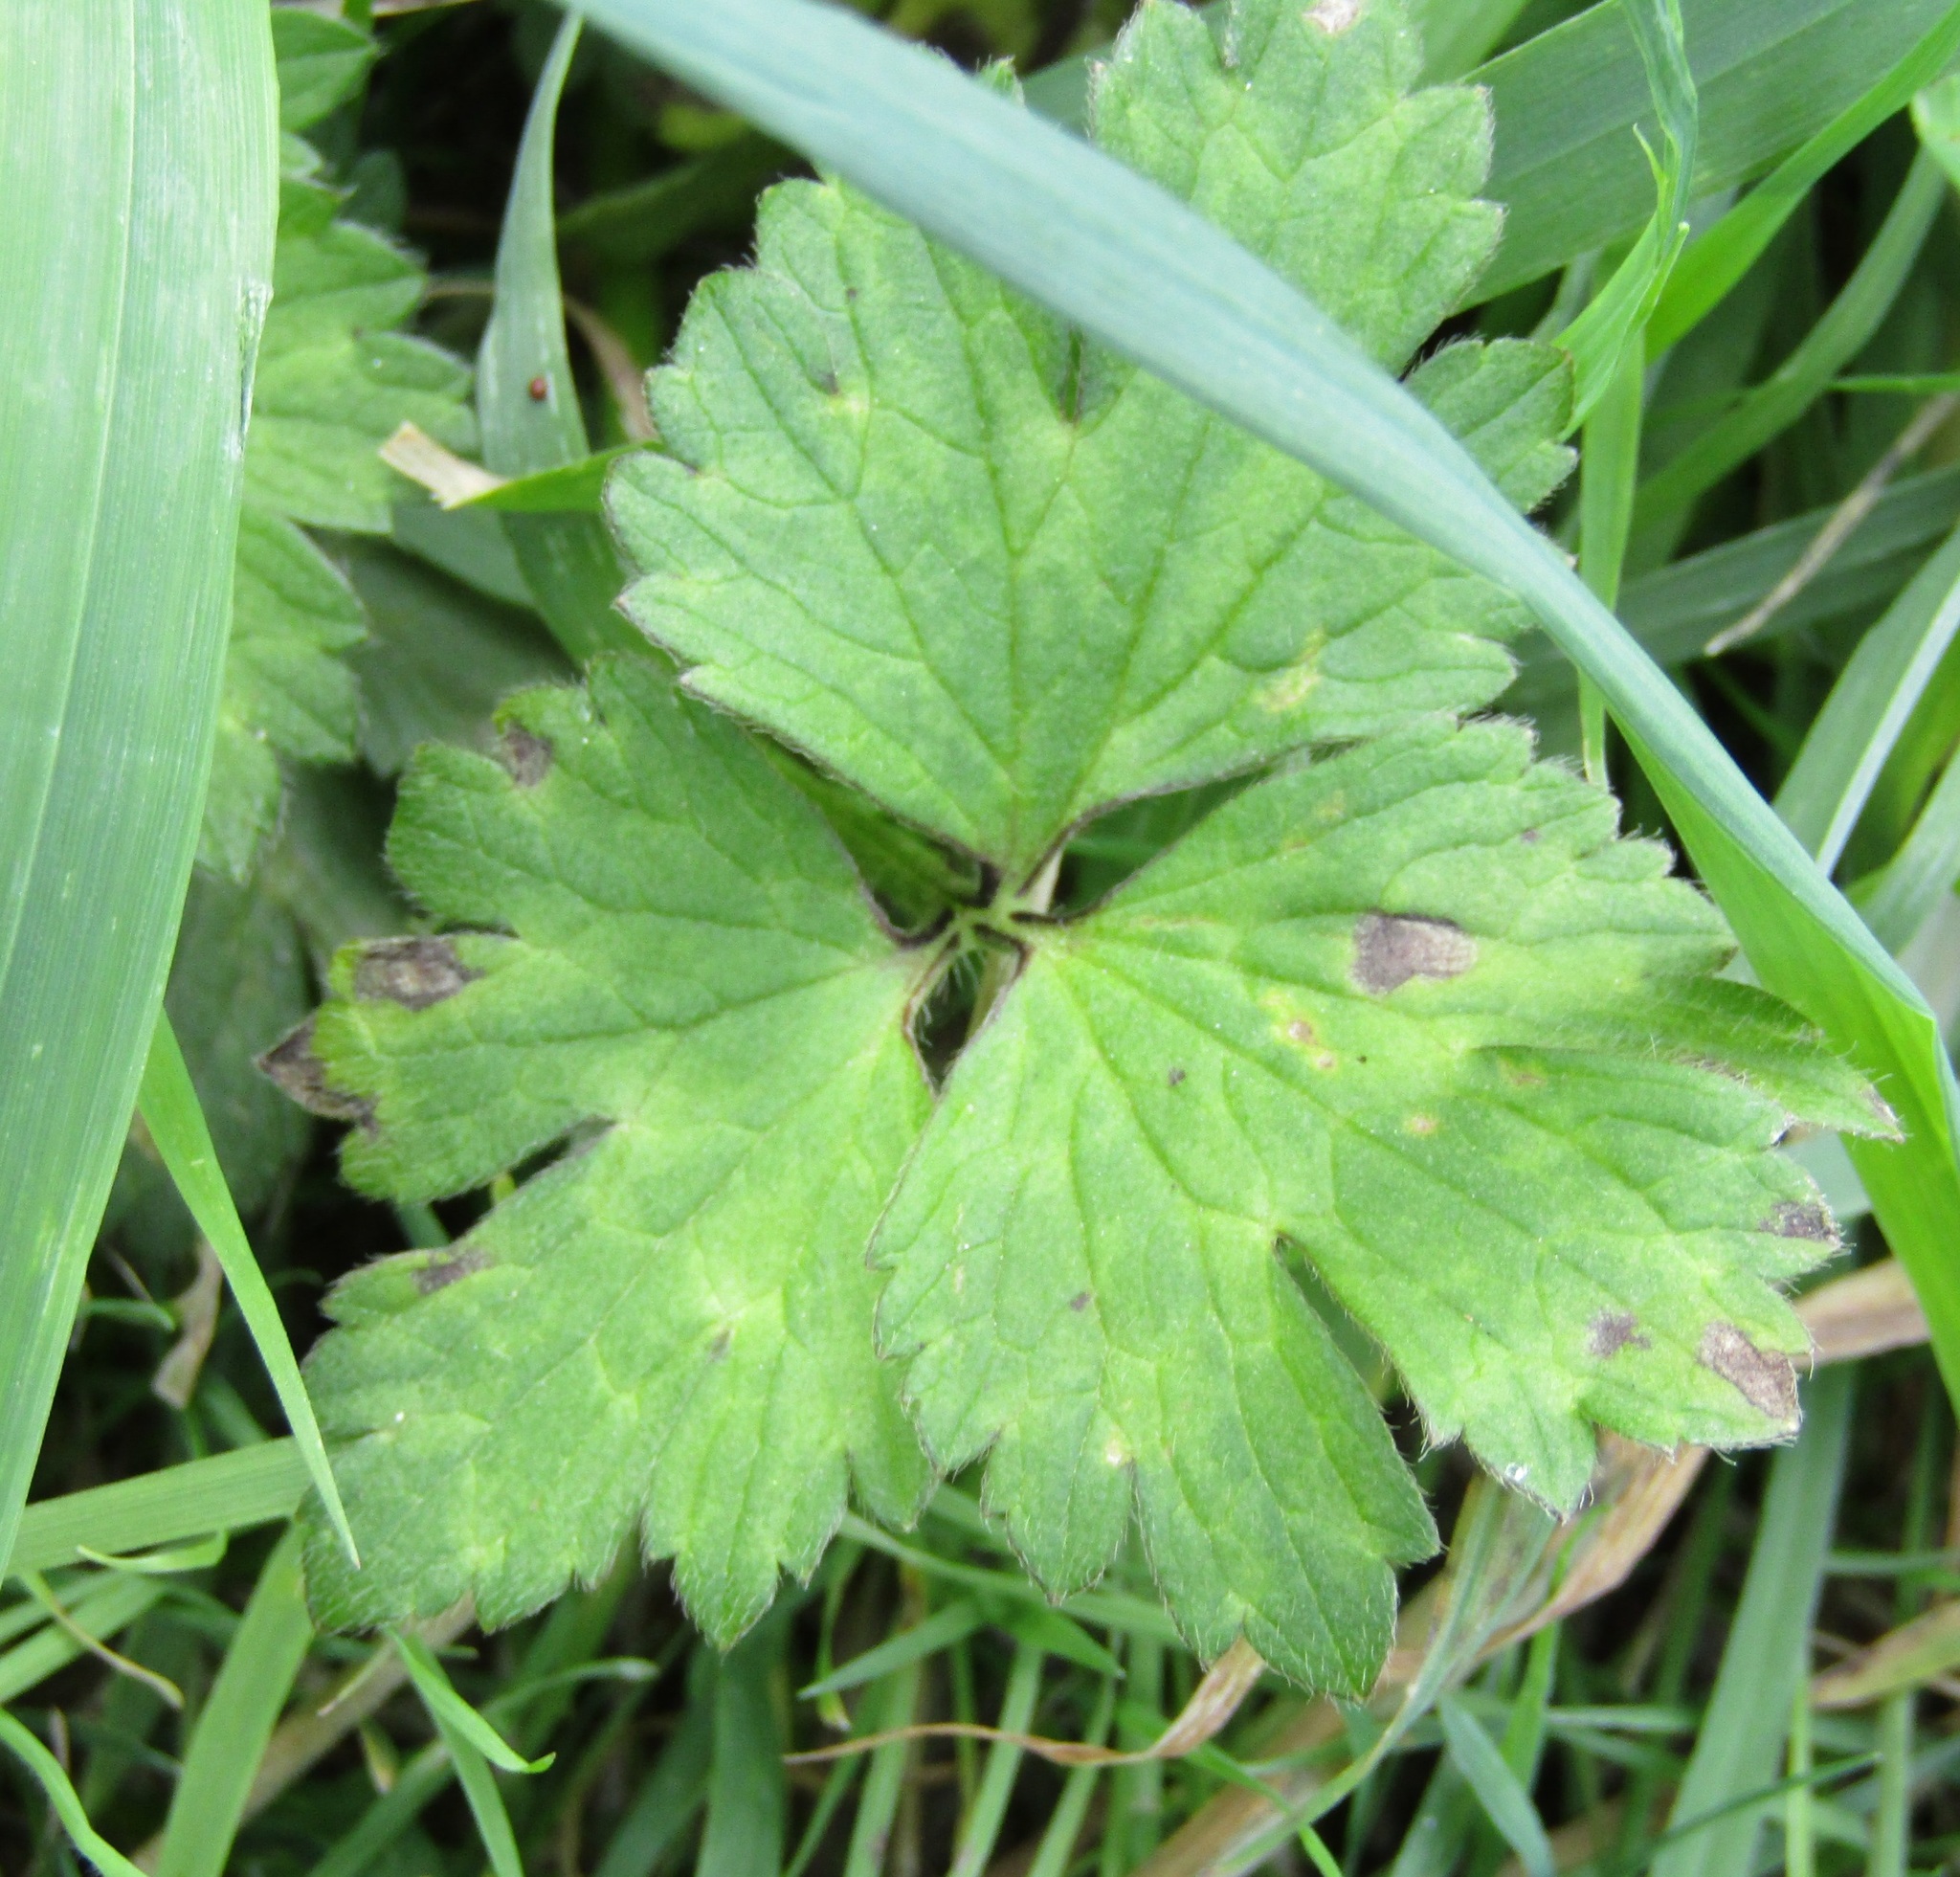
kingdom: Plantae
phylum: Tracheophyta
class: Magnoliopsida
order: Ranunculales
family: Ranunculaceae
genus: Ranunculus
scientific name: Ranunculus repens
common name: Creeping buttercup
